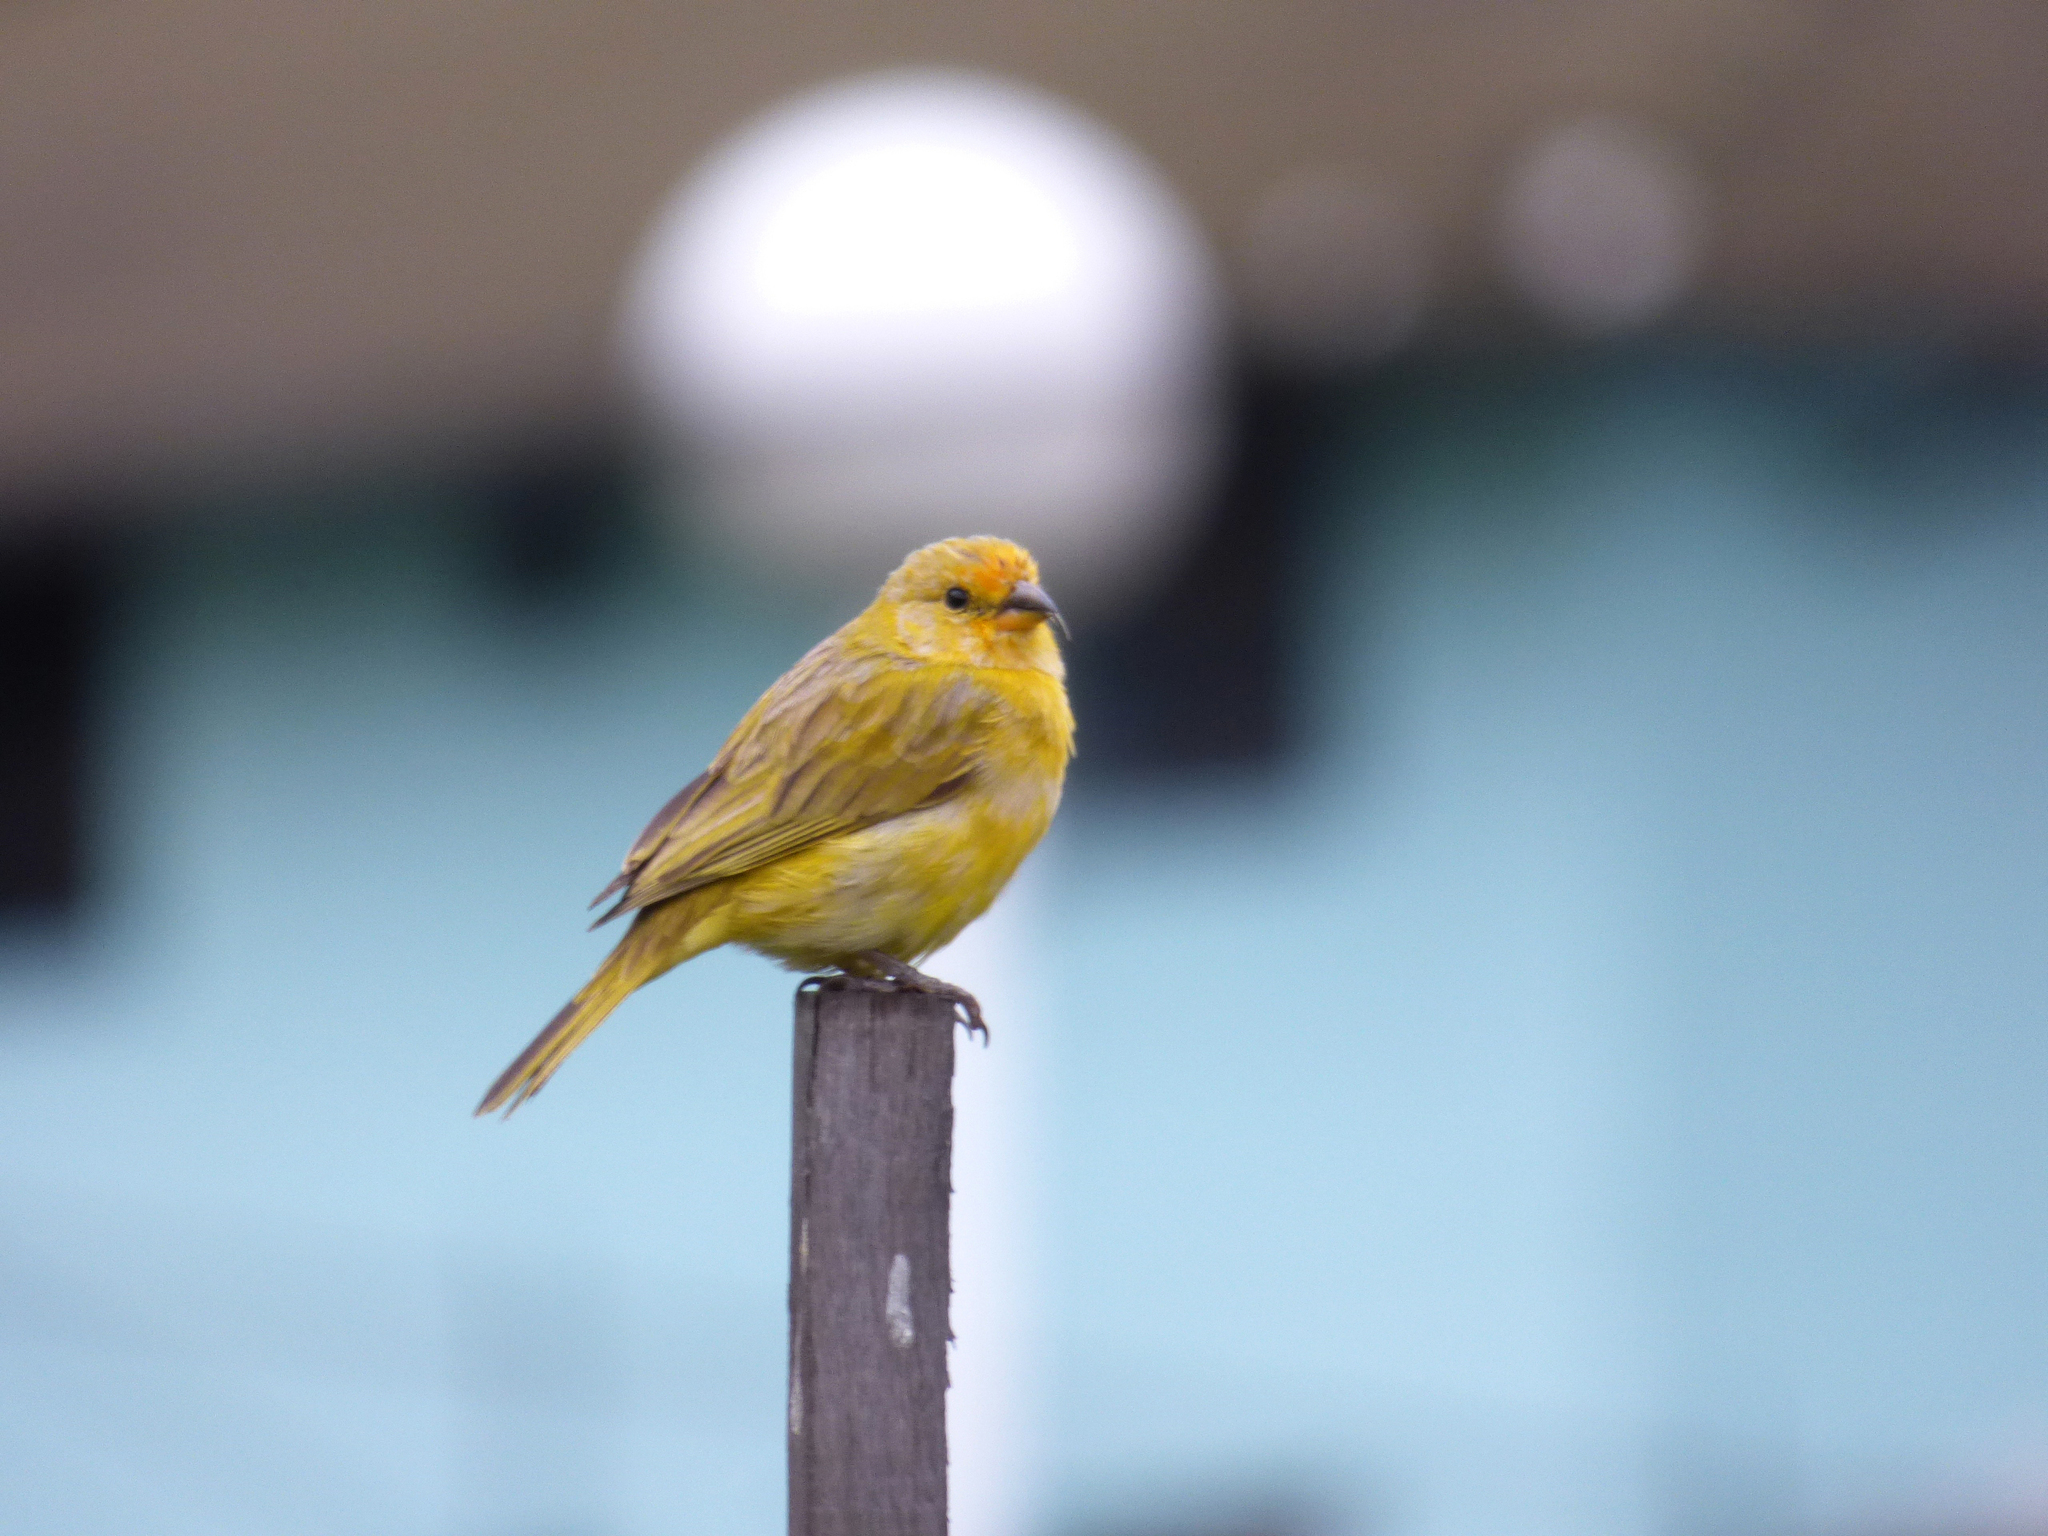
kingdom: Animalia
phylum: Chordata
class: Aves
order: Passeriformes
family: Thraupidae
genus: Sicalis
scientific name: Sicalis flaveola
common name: Saffron finch
